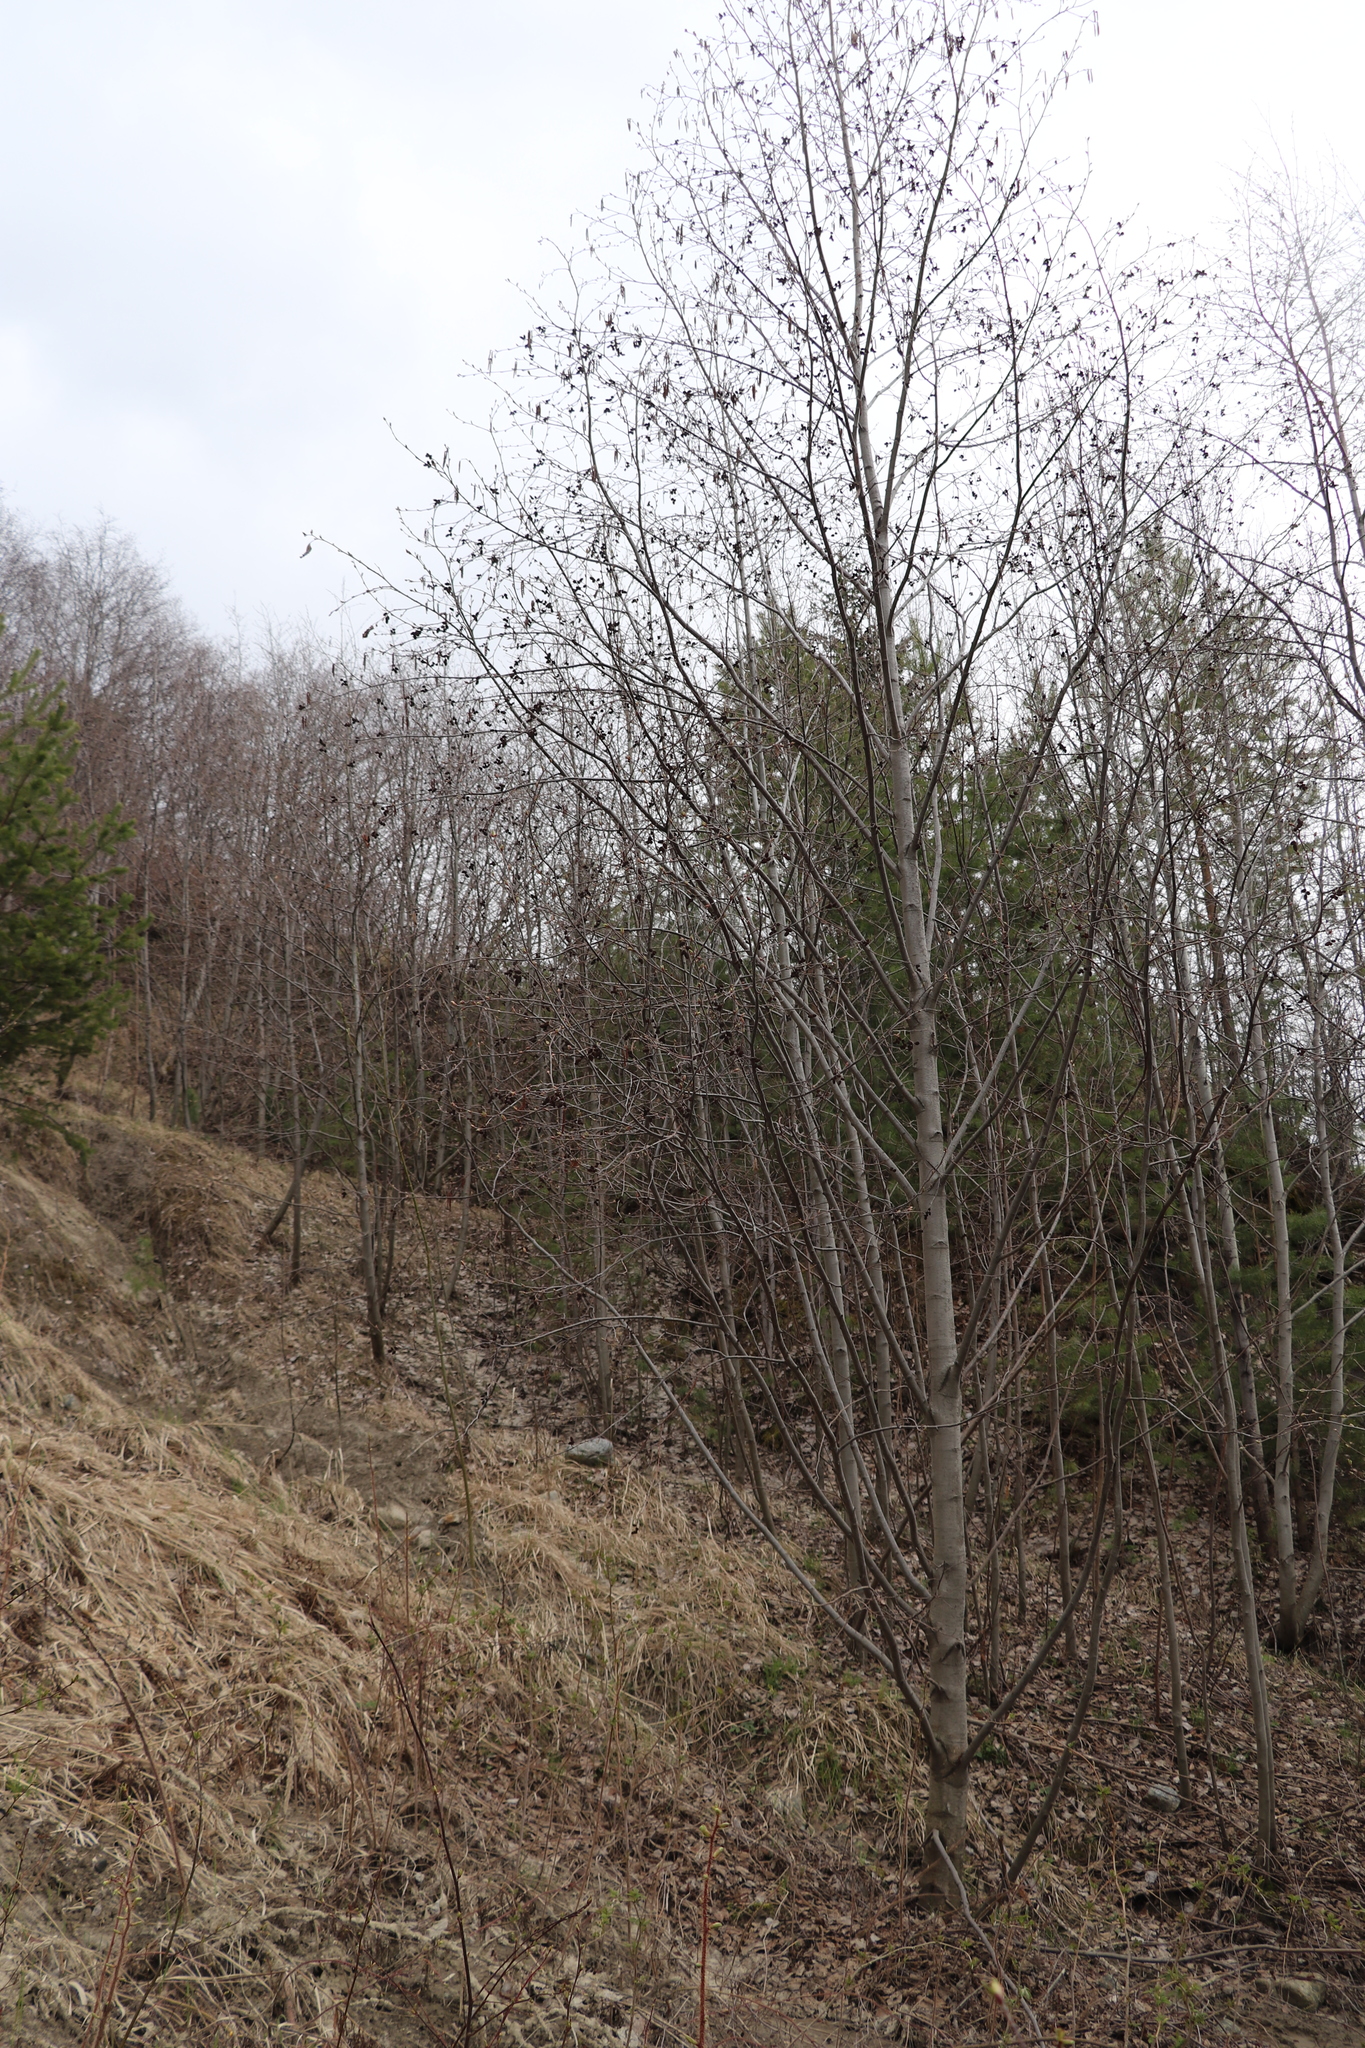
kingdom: Plantae
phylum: Tracheophyta
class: Magnoliopsida
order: Fagales
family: Betulaceae
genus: Alnus
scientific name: Alnus incana
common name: Grey alder
